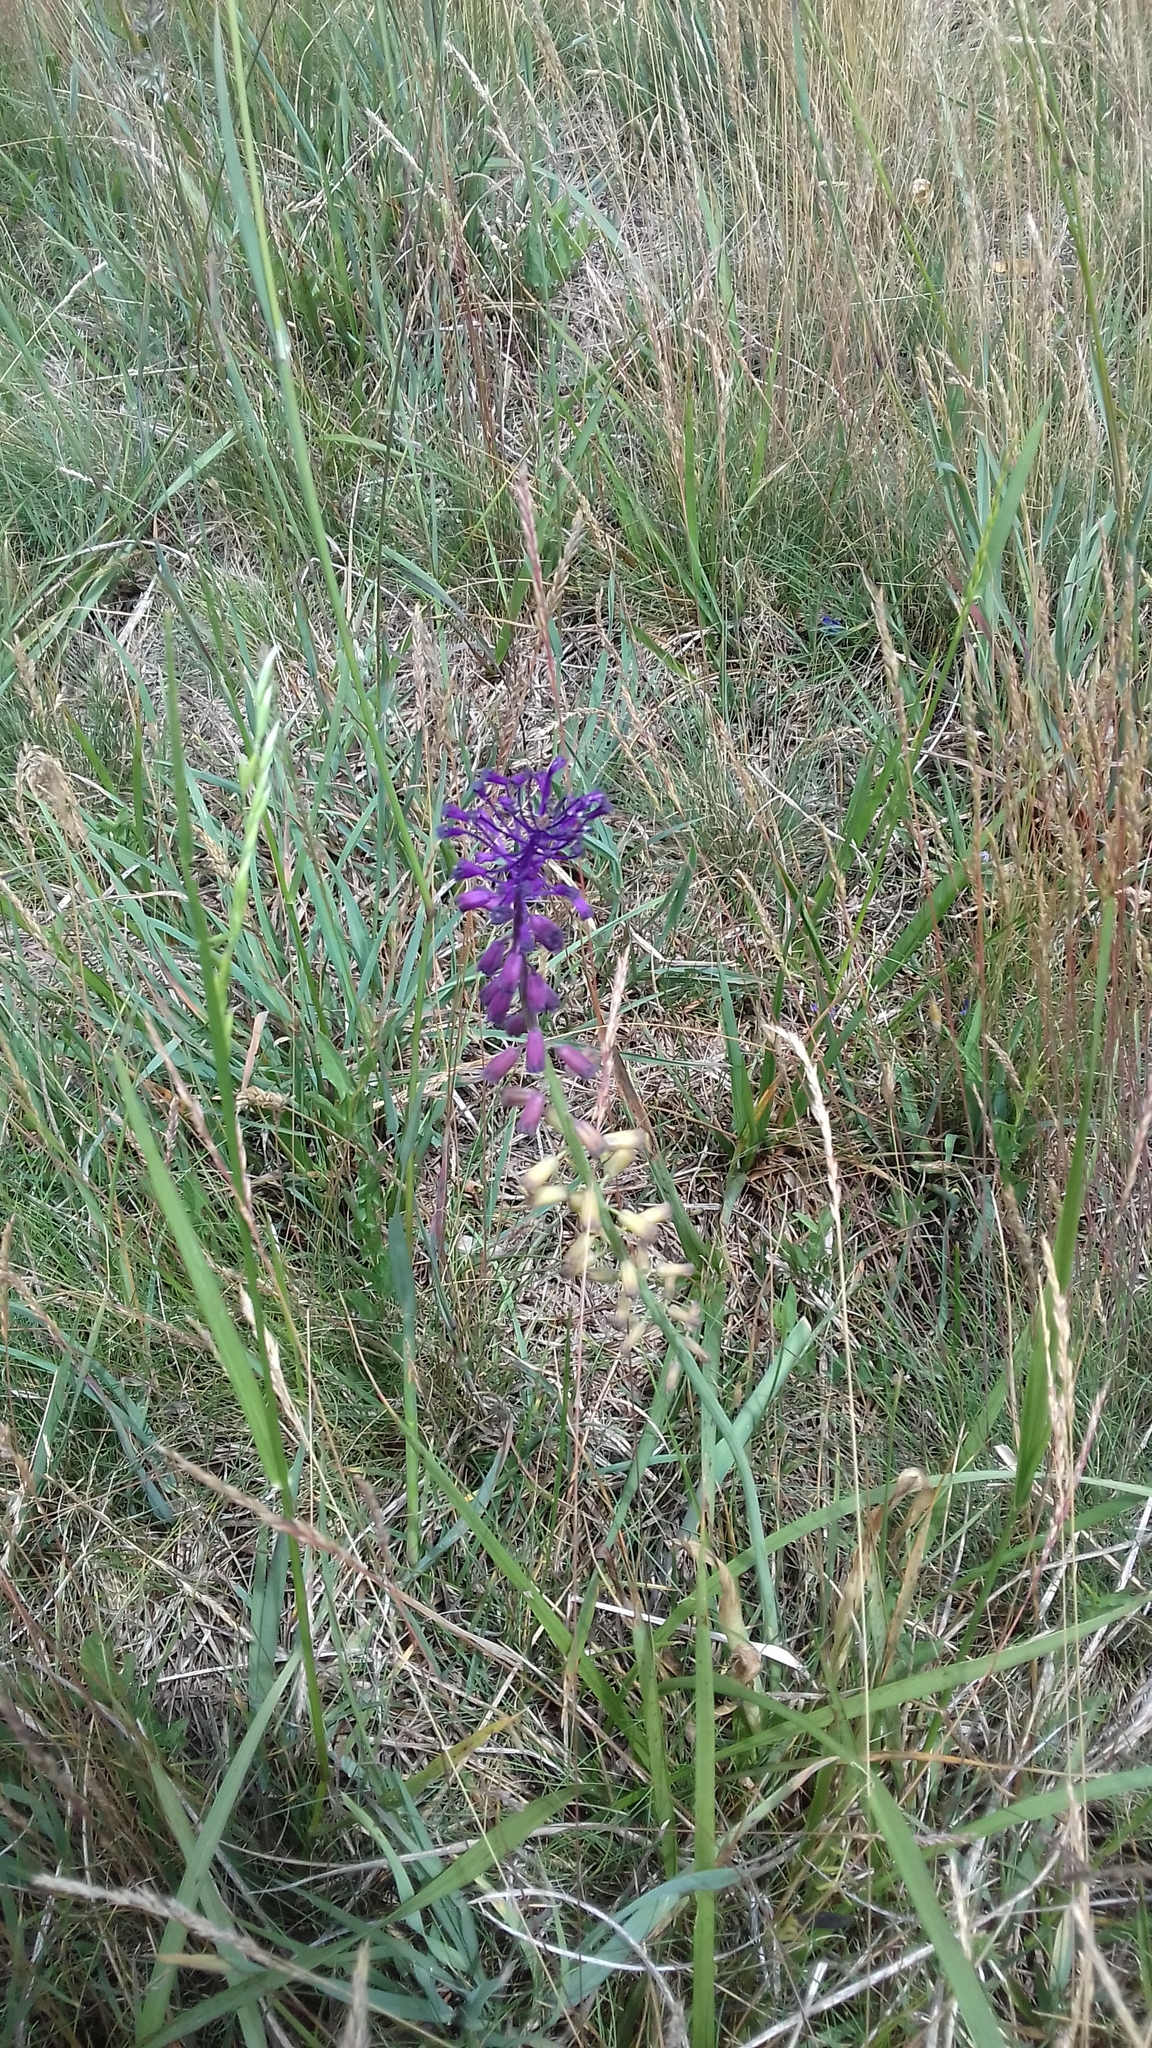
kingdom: Plantae
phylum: Tracheophyta
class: Liliopsida
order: Asparagales
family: Asparagaceae
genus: Muscari
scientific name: Muscari comosum
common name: Tassel hyacinth
